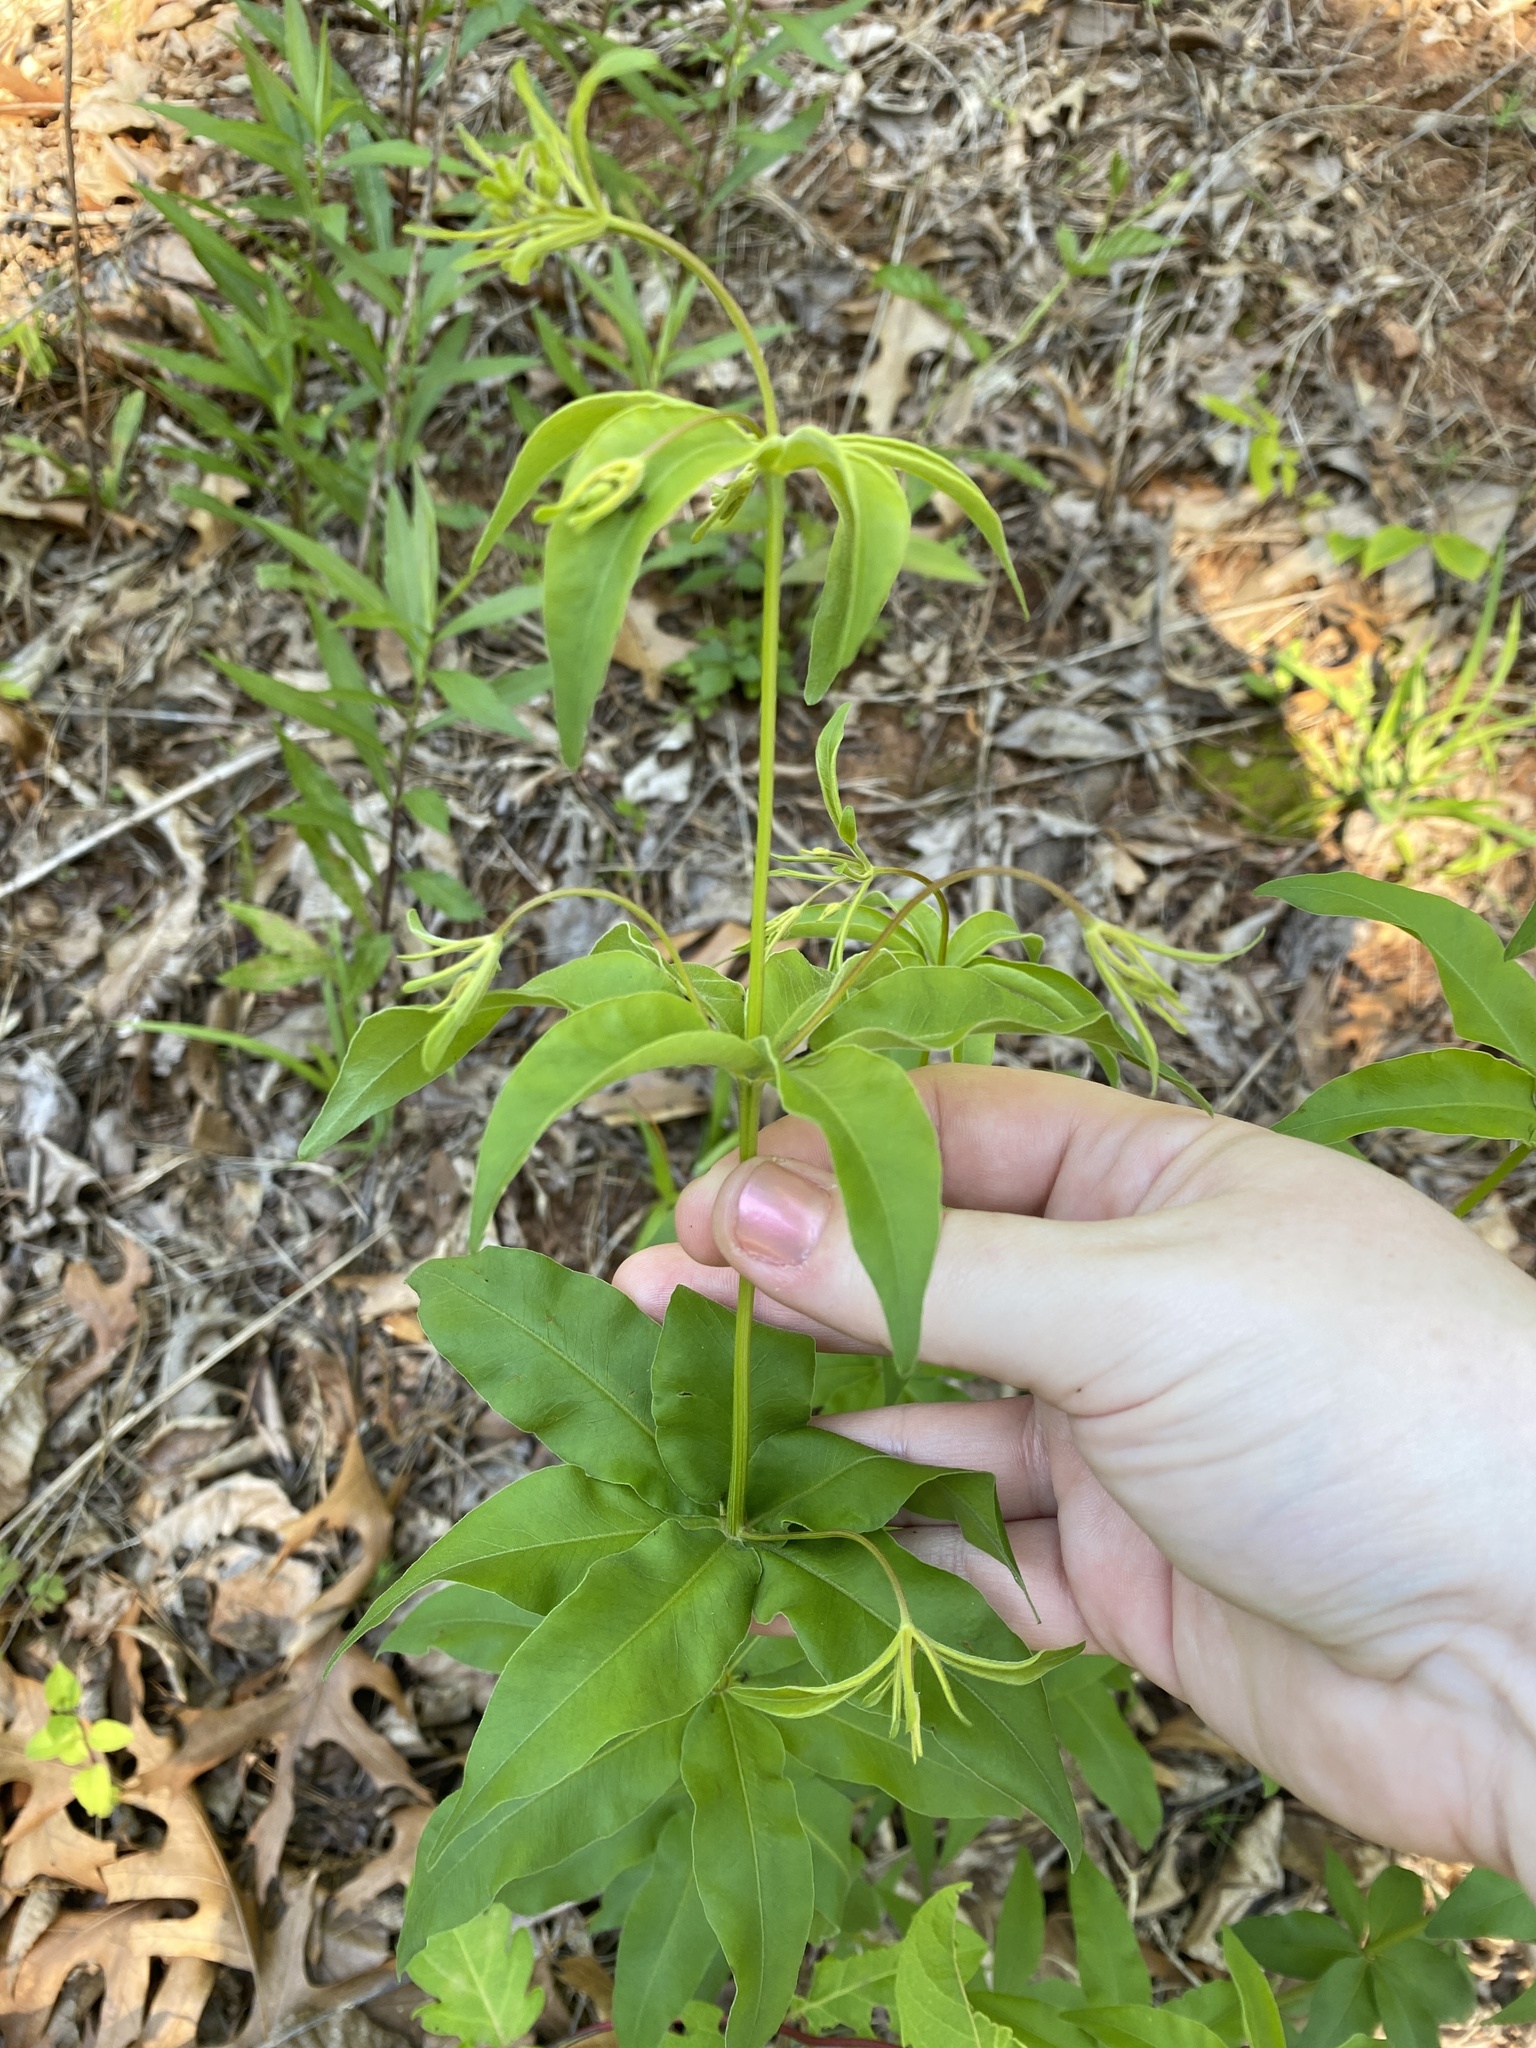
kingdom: Plantae
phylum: Tracheophyta
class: Magnoliopsida
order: Asterales
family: Asteraceae
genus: Coreopsis
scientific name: Coreopsis major
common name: Forest tickseed
